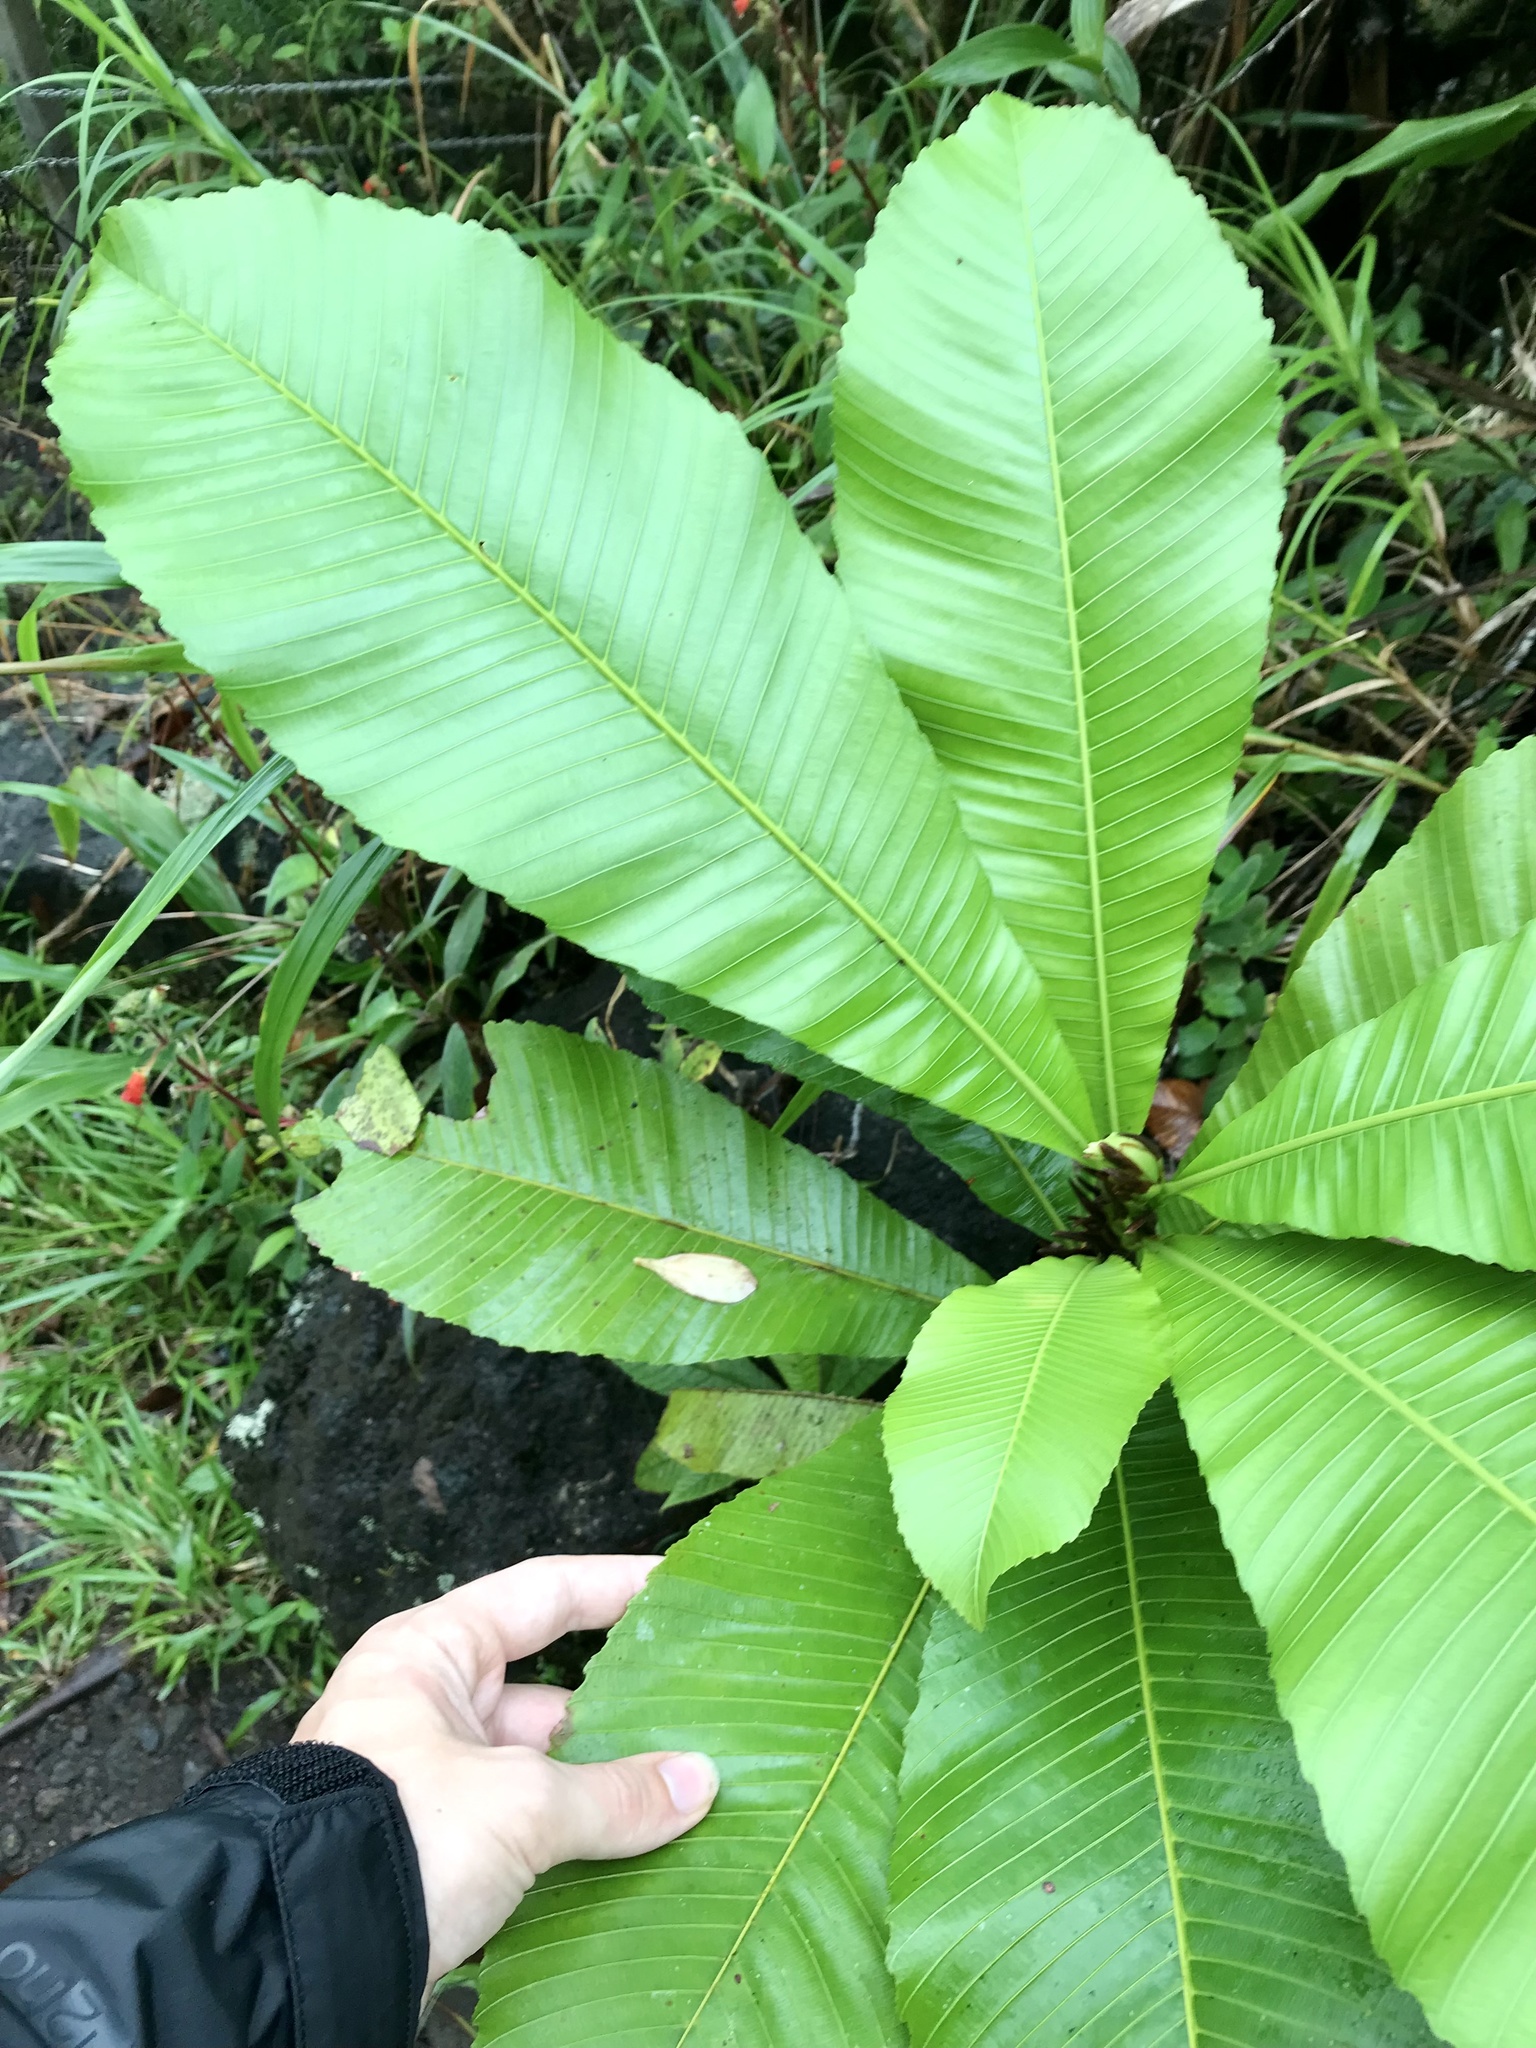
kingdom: Plantae
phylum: Tracheophyta
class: Magnoliopsida
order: Malpighiales
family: Ochnaceae
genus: Cespedesia
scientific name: Cespedesia spathulata
